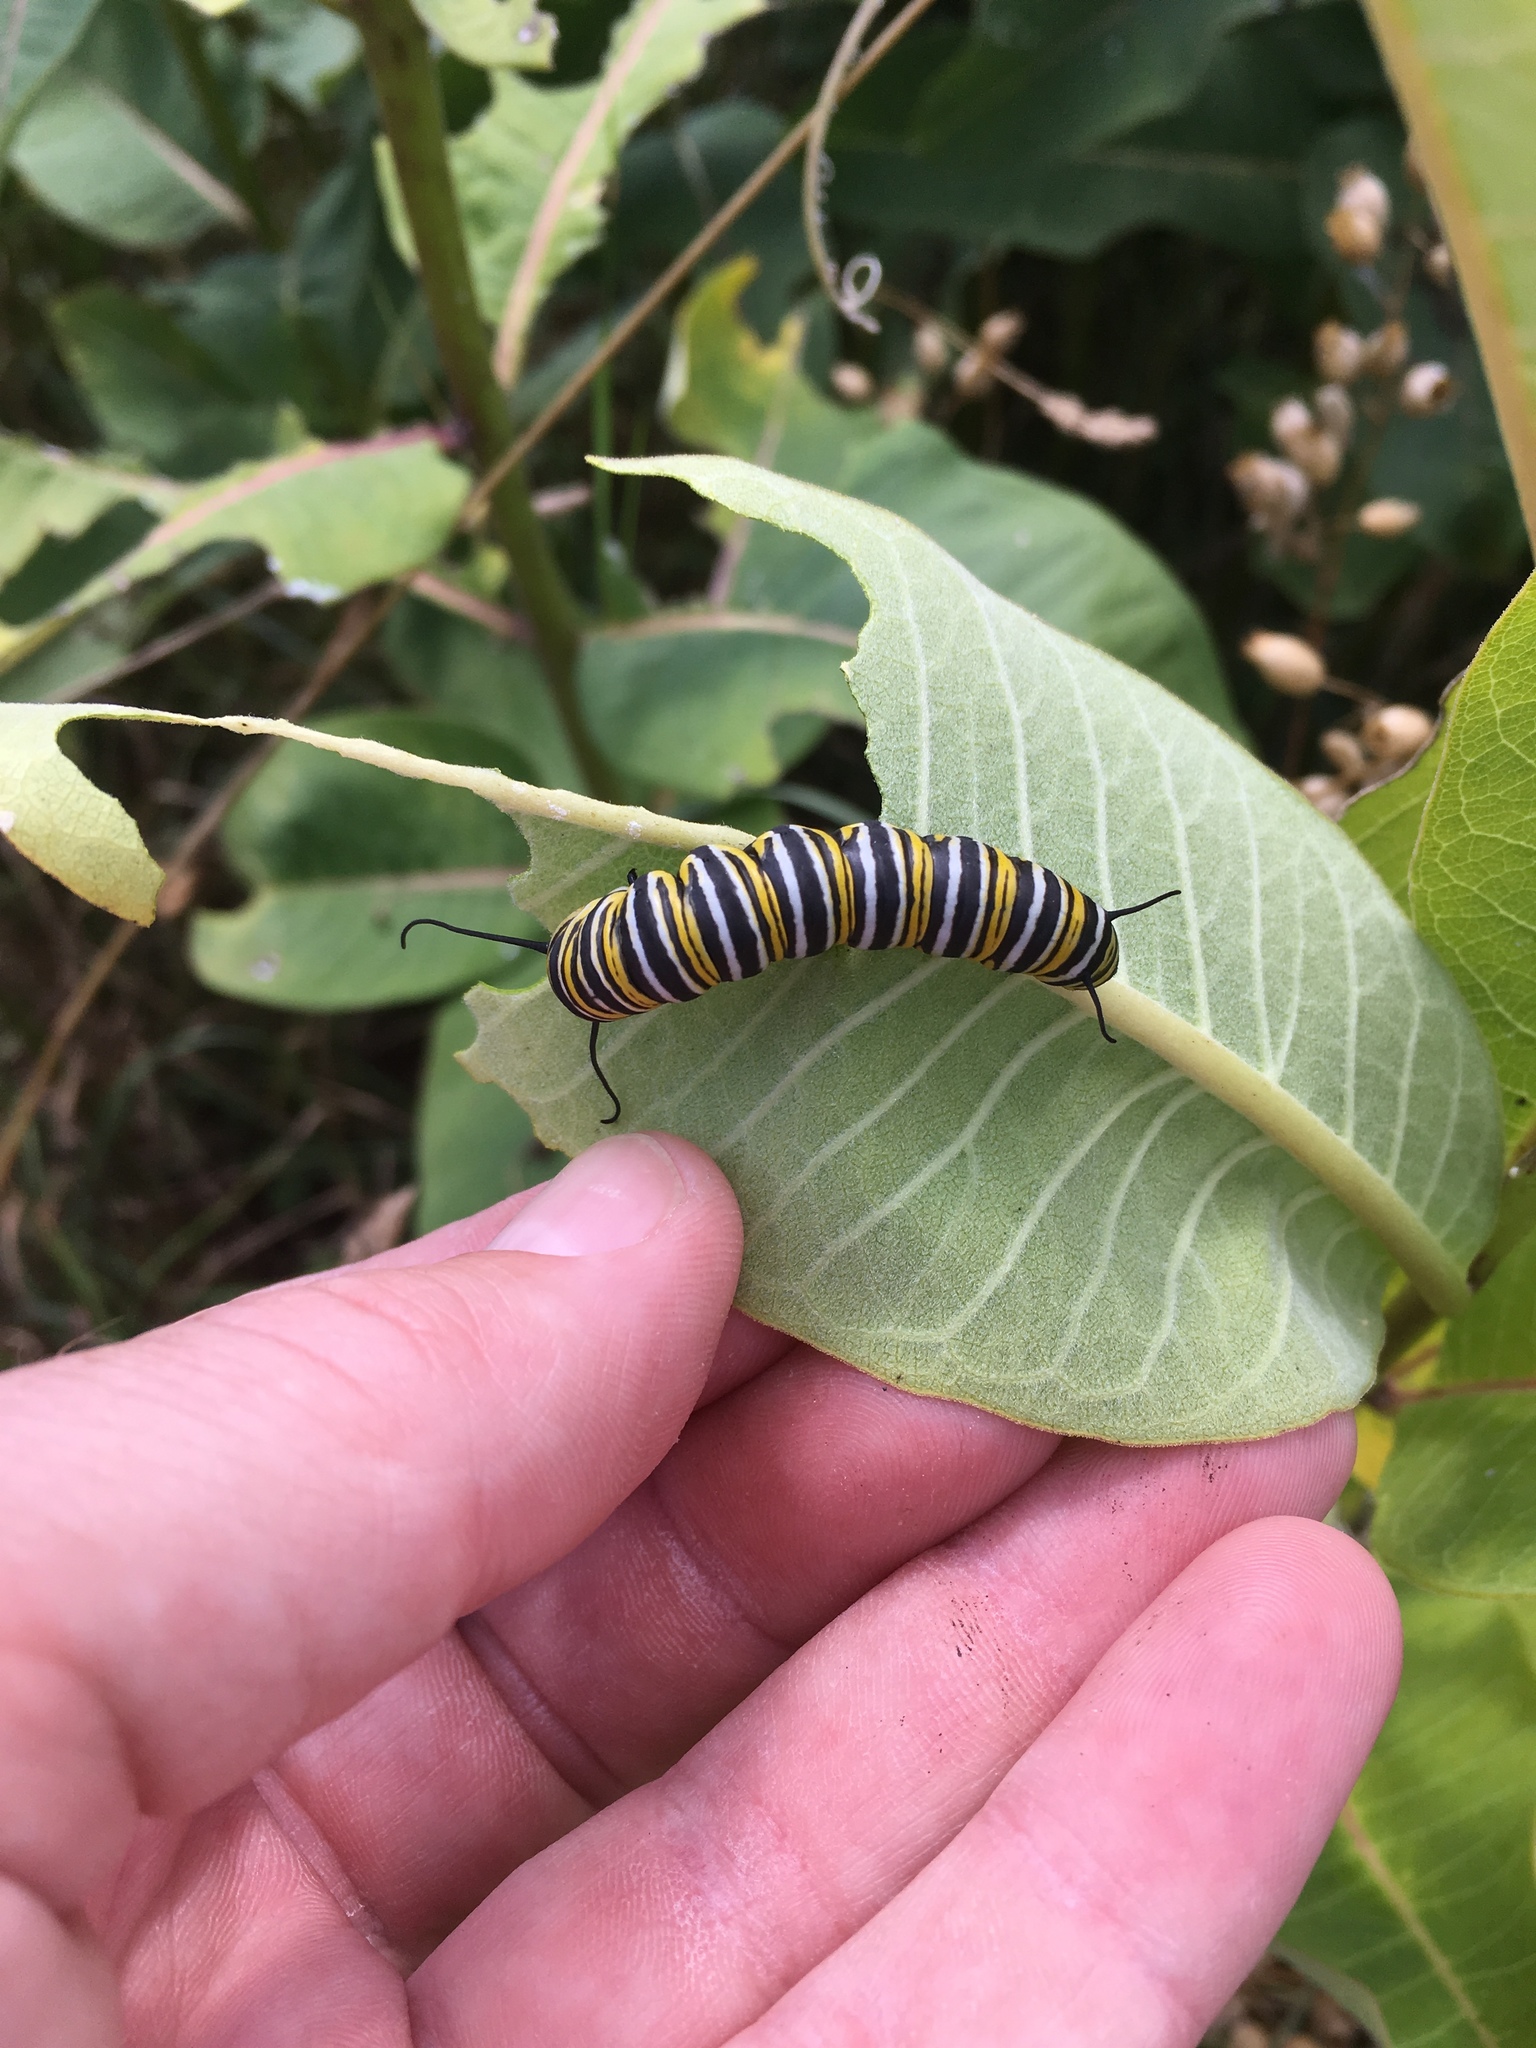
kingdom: Animalia
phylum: Arthropoda
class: Insecta
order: Lepidoptera
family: Nymphalidae
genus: Danaus
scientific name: Danaus plexippus
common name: Monarch
